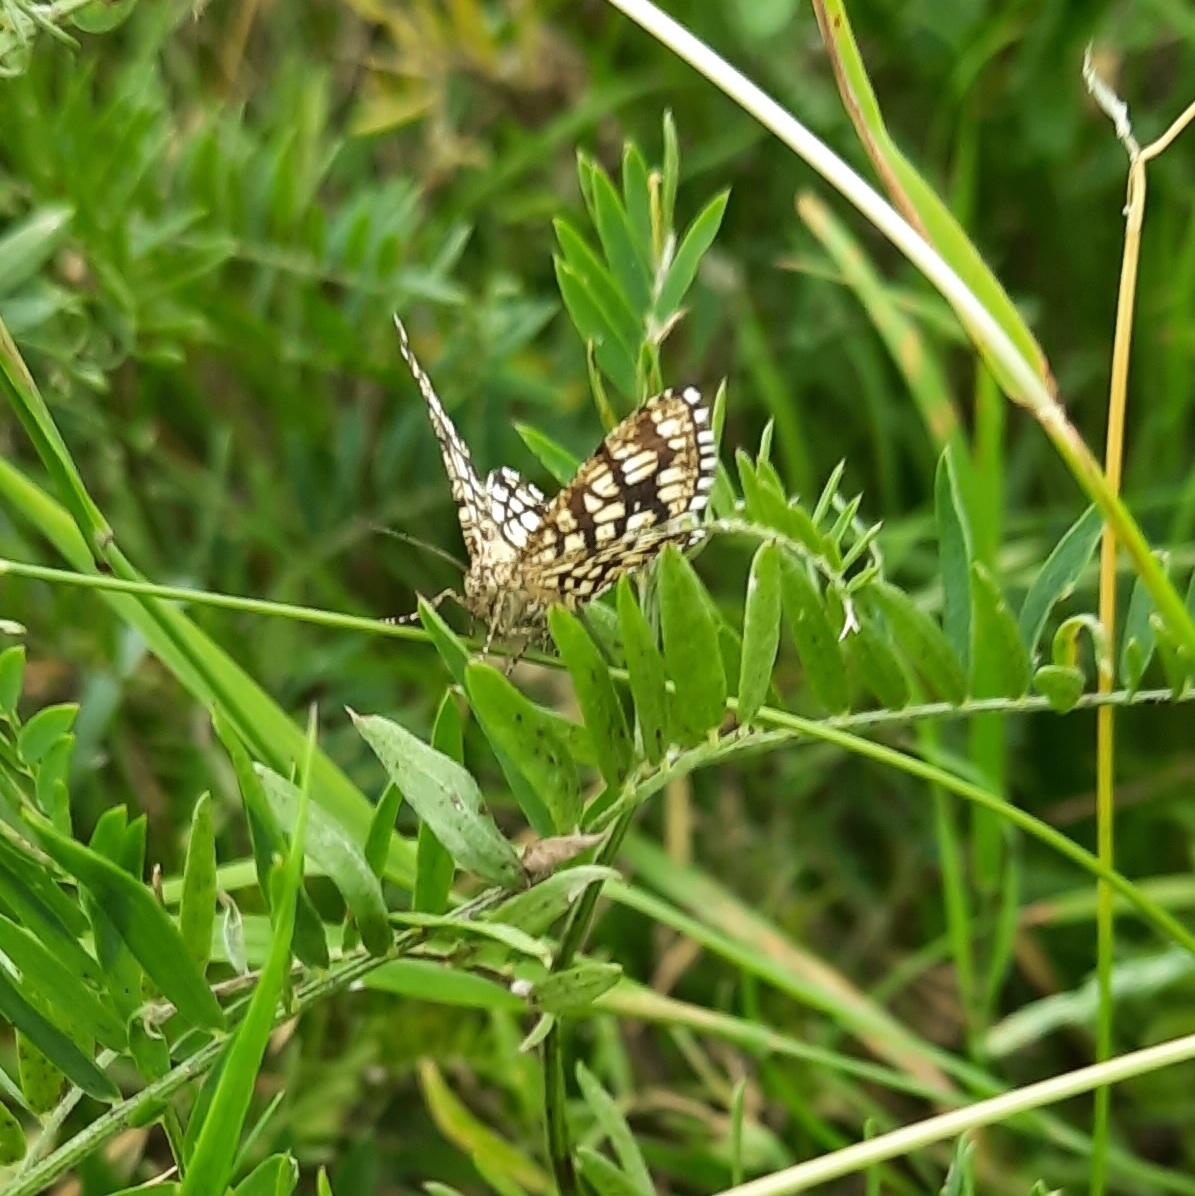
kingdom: Animalia
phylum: Arthropoda
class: Insecta
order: Lepidoptera
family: Geometridae
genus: Chiasmia
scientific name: Chiasmia clathrata
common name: Latticed heath
